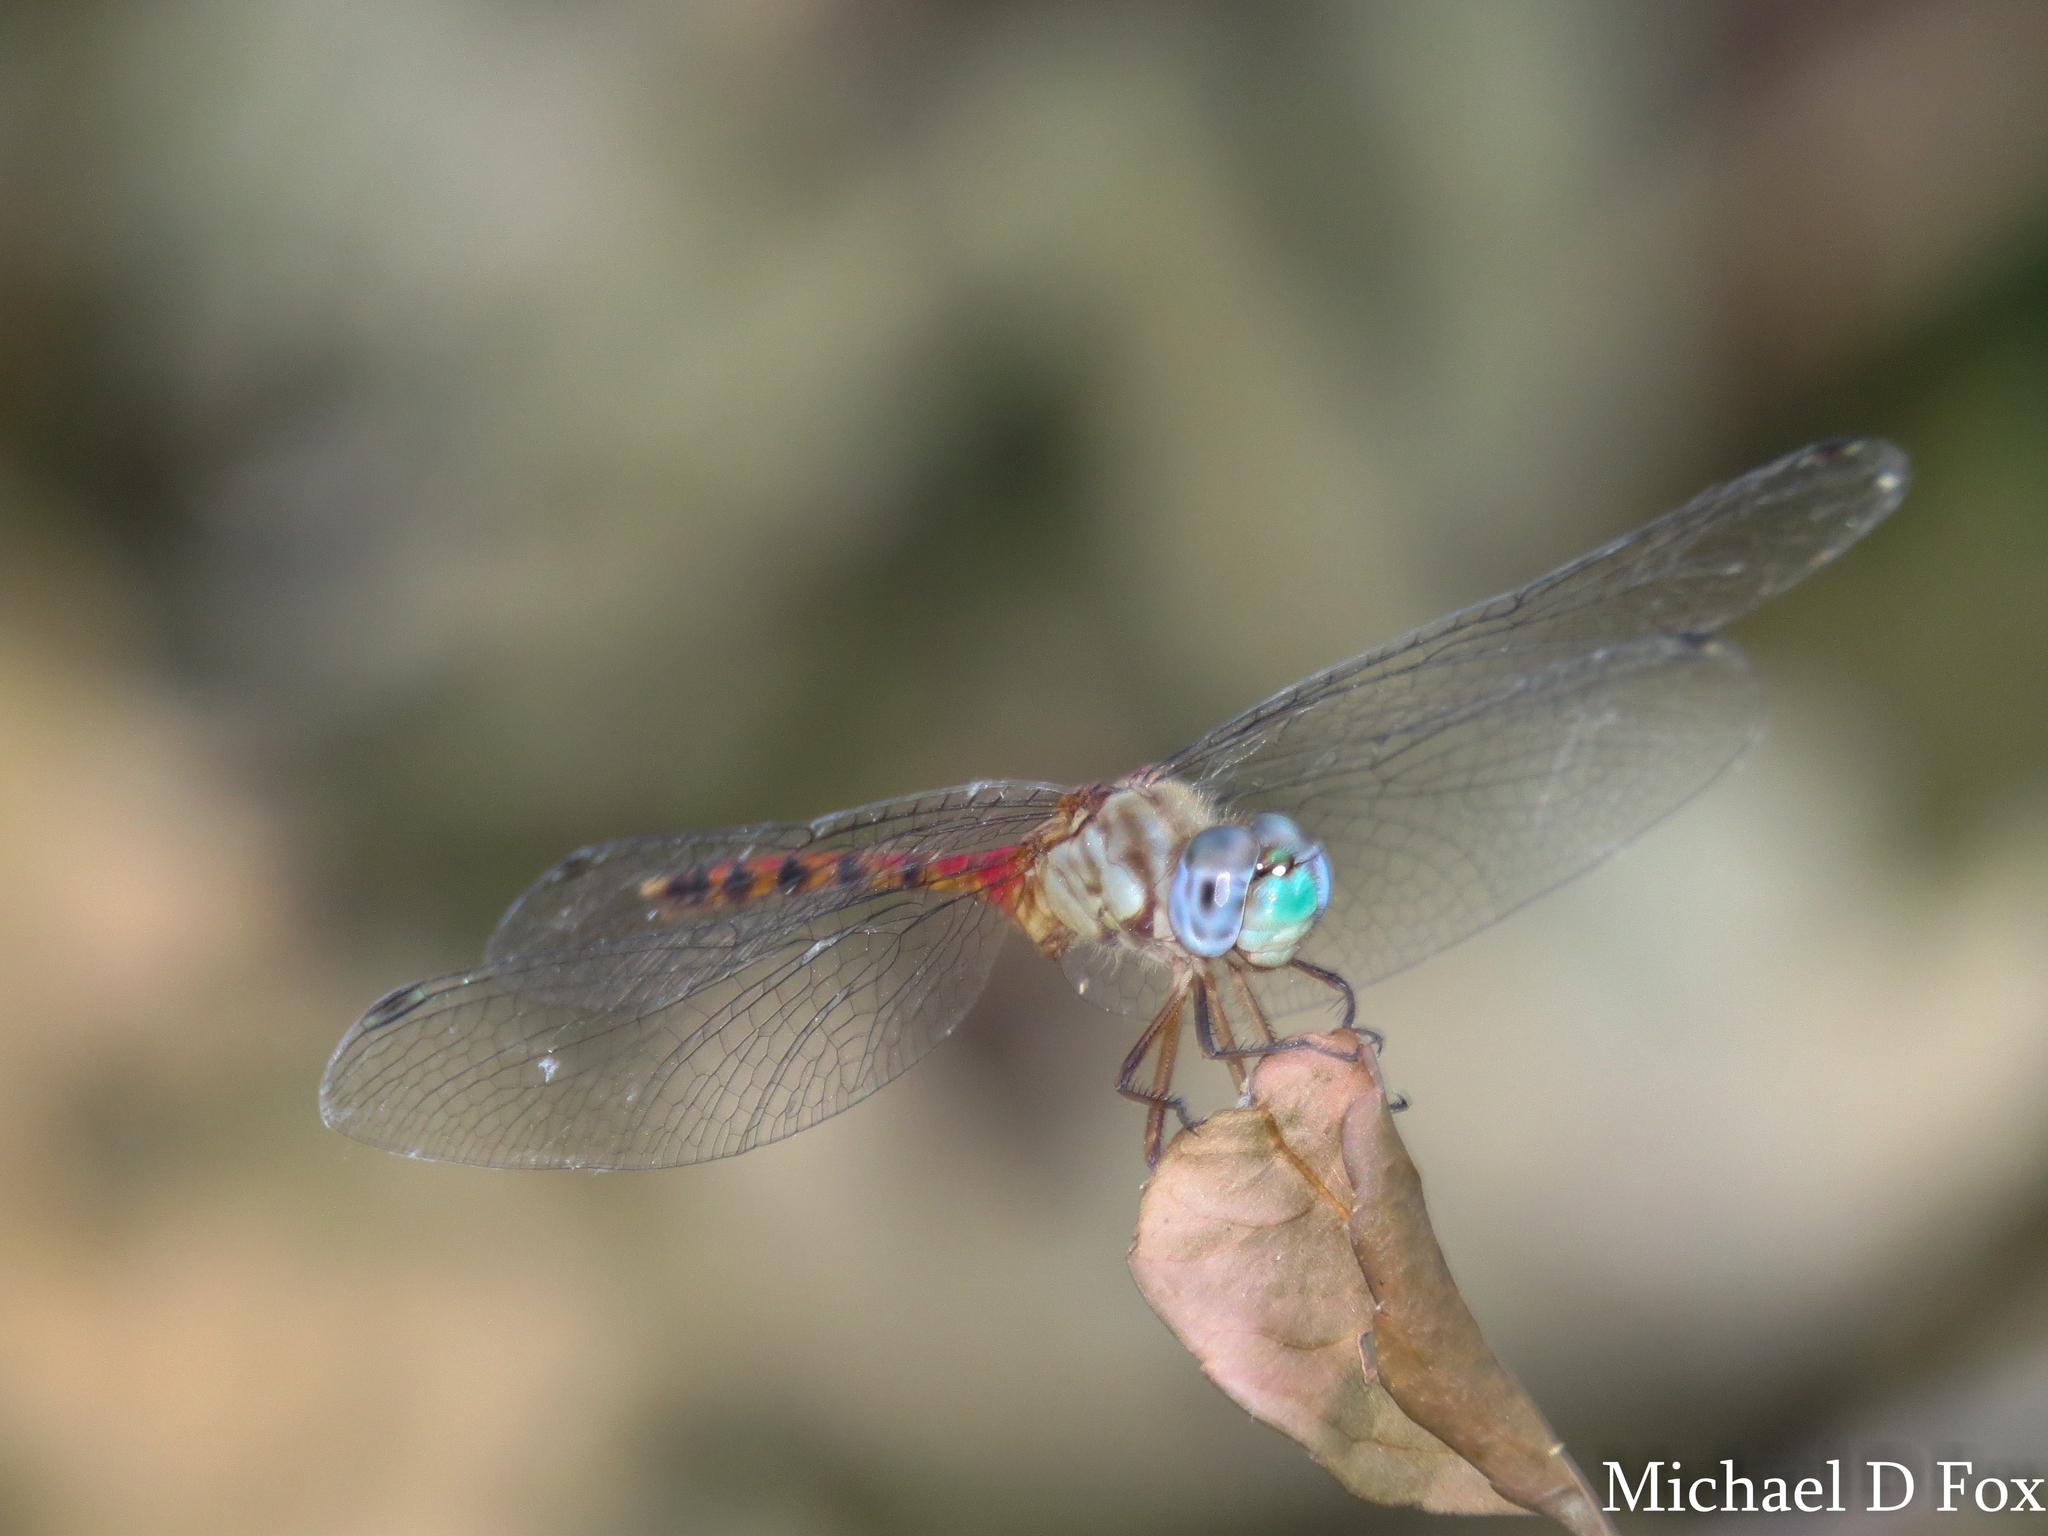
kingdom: Animalia
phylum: Arthropoda
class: Insecta
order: Odonata
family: Libellulidae
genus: Sympetrum
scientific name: Sympetrum ambiguum
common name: Blue-faced meadowhawk
